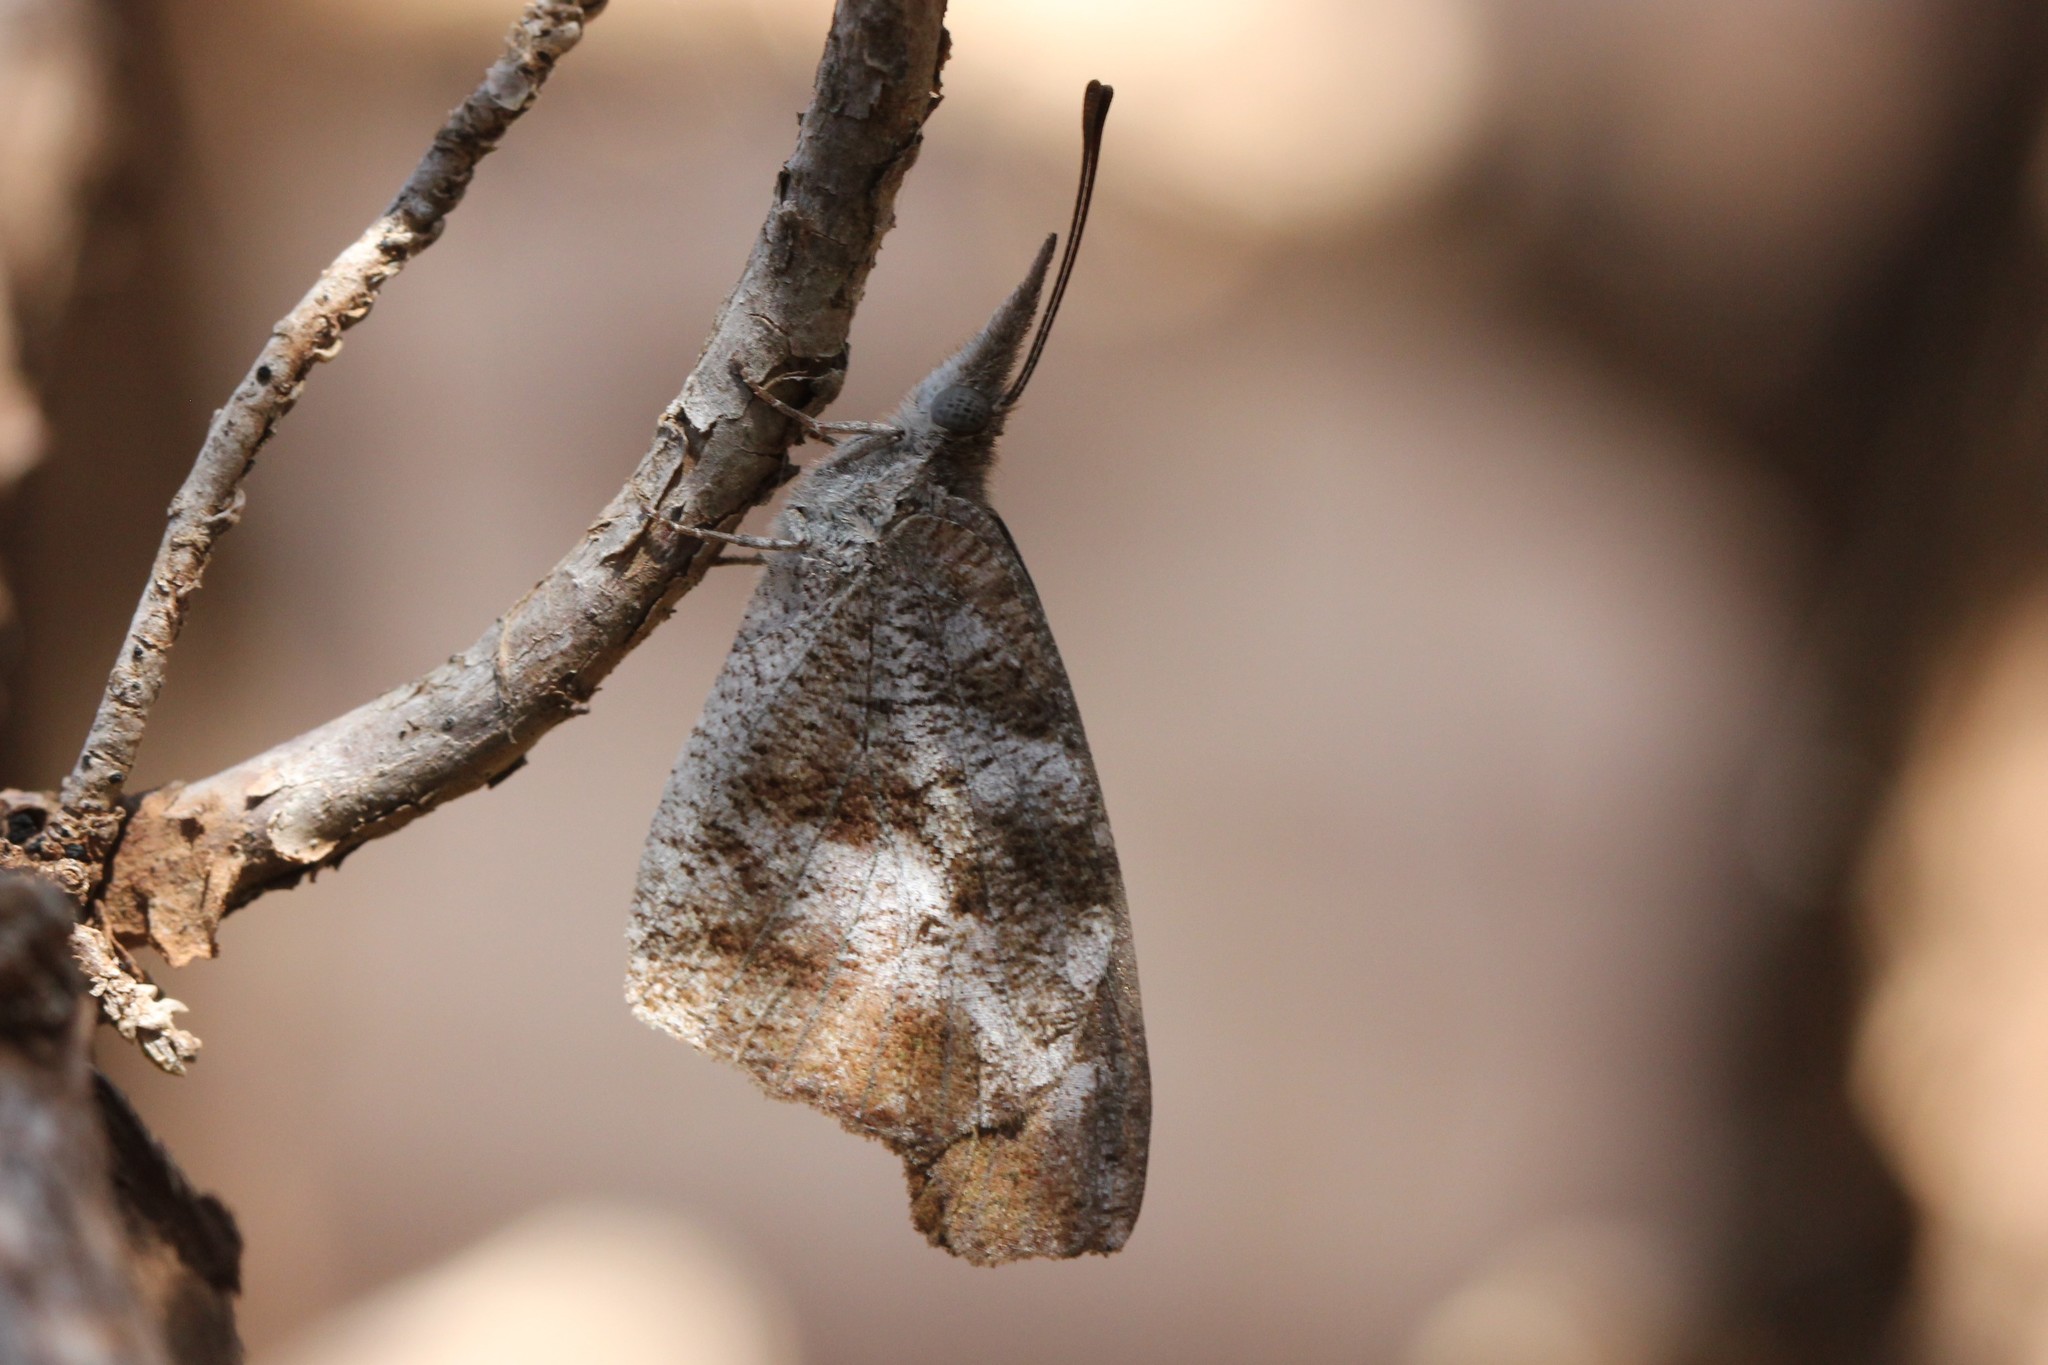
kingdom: Animalia
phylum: Arthropoda
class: Insecta
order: Lepidoptera
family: Nymphalidae
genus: Libytheana
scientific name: Libytheana carinenta
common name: American snout
